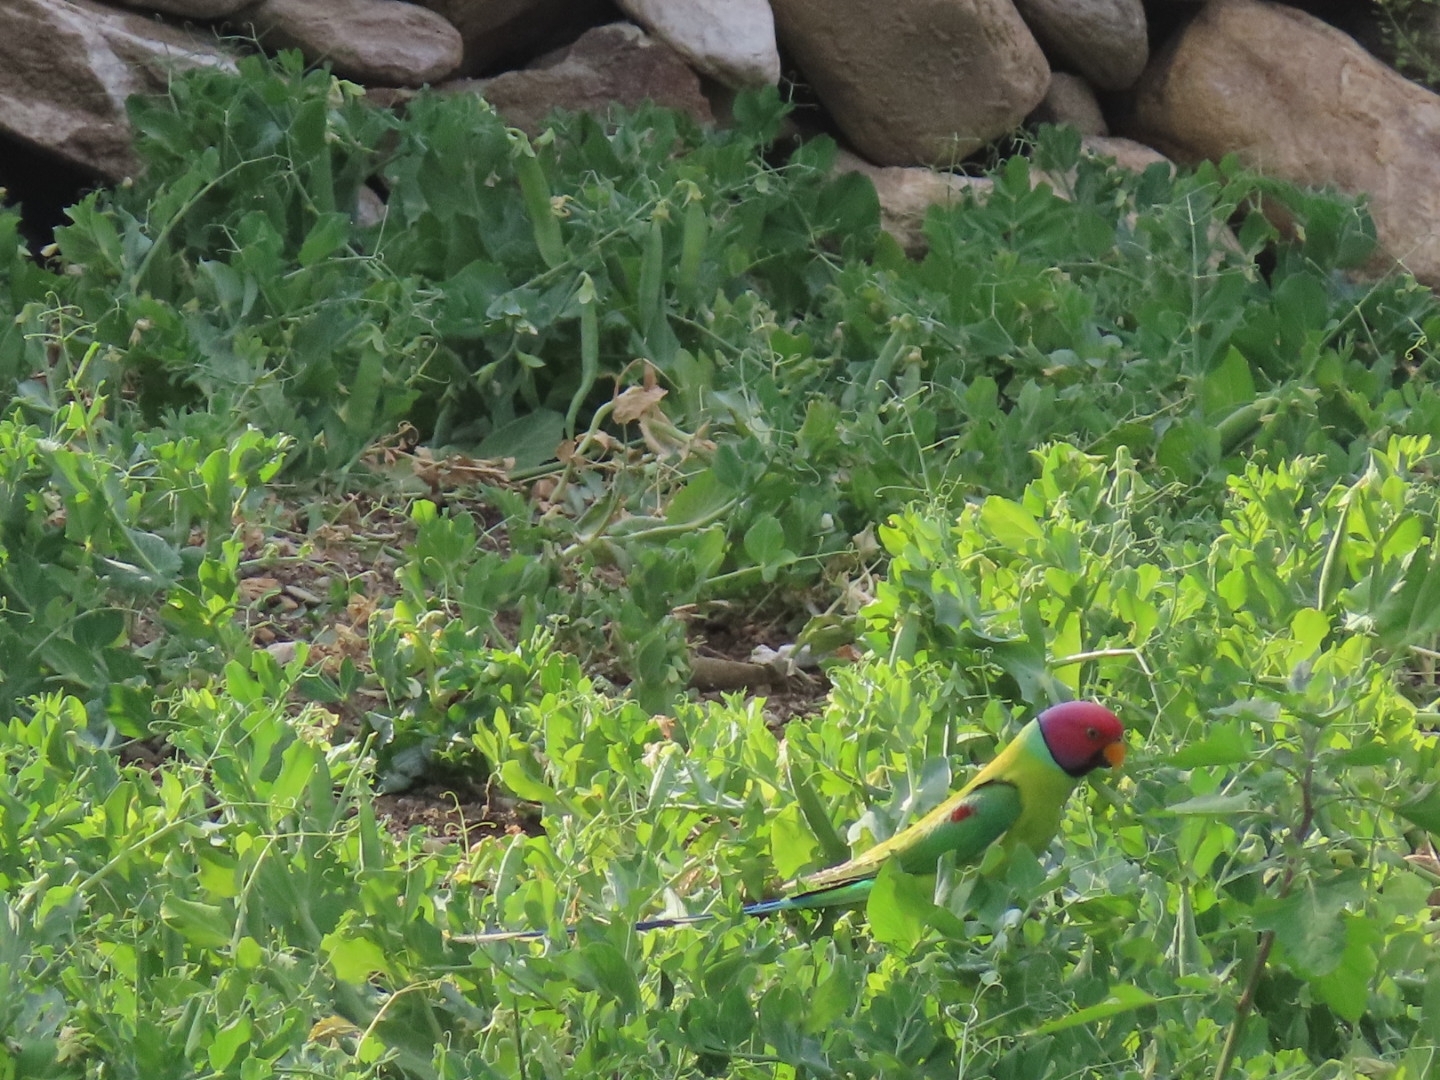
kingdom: Animalia
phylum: Chordata
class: Aves
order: Psittaciformes
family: Psittacidae
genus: Psittacula
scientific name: Psittacula cyanocephala
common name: Plum-headed parakeet
